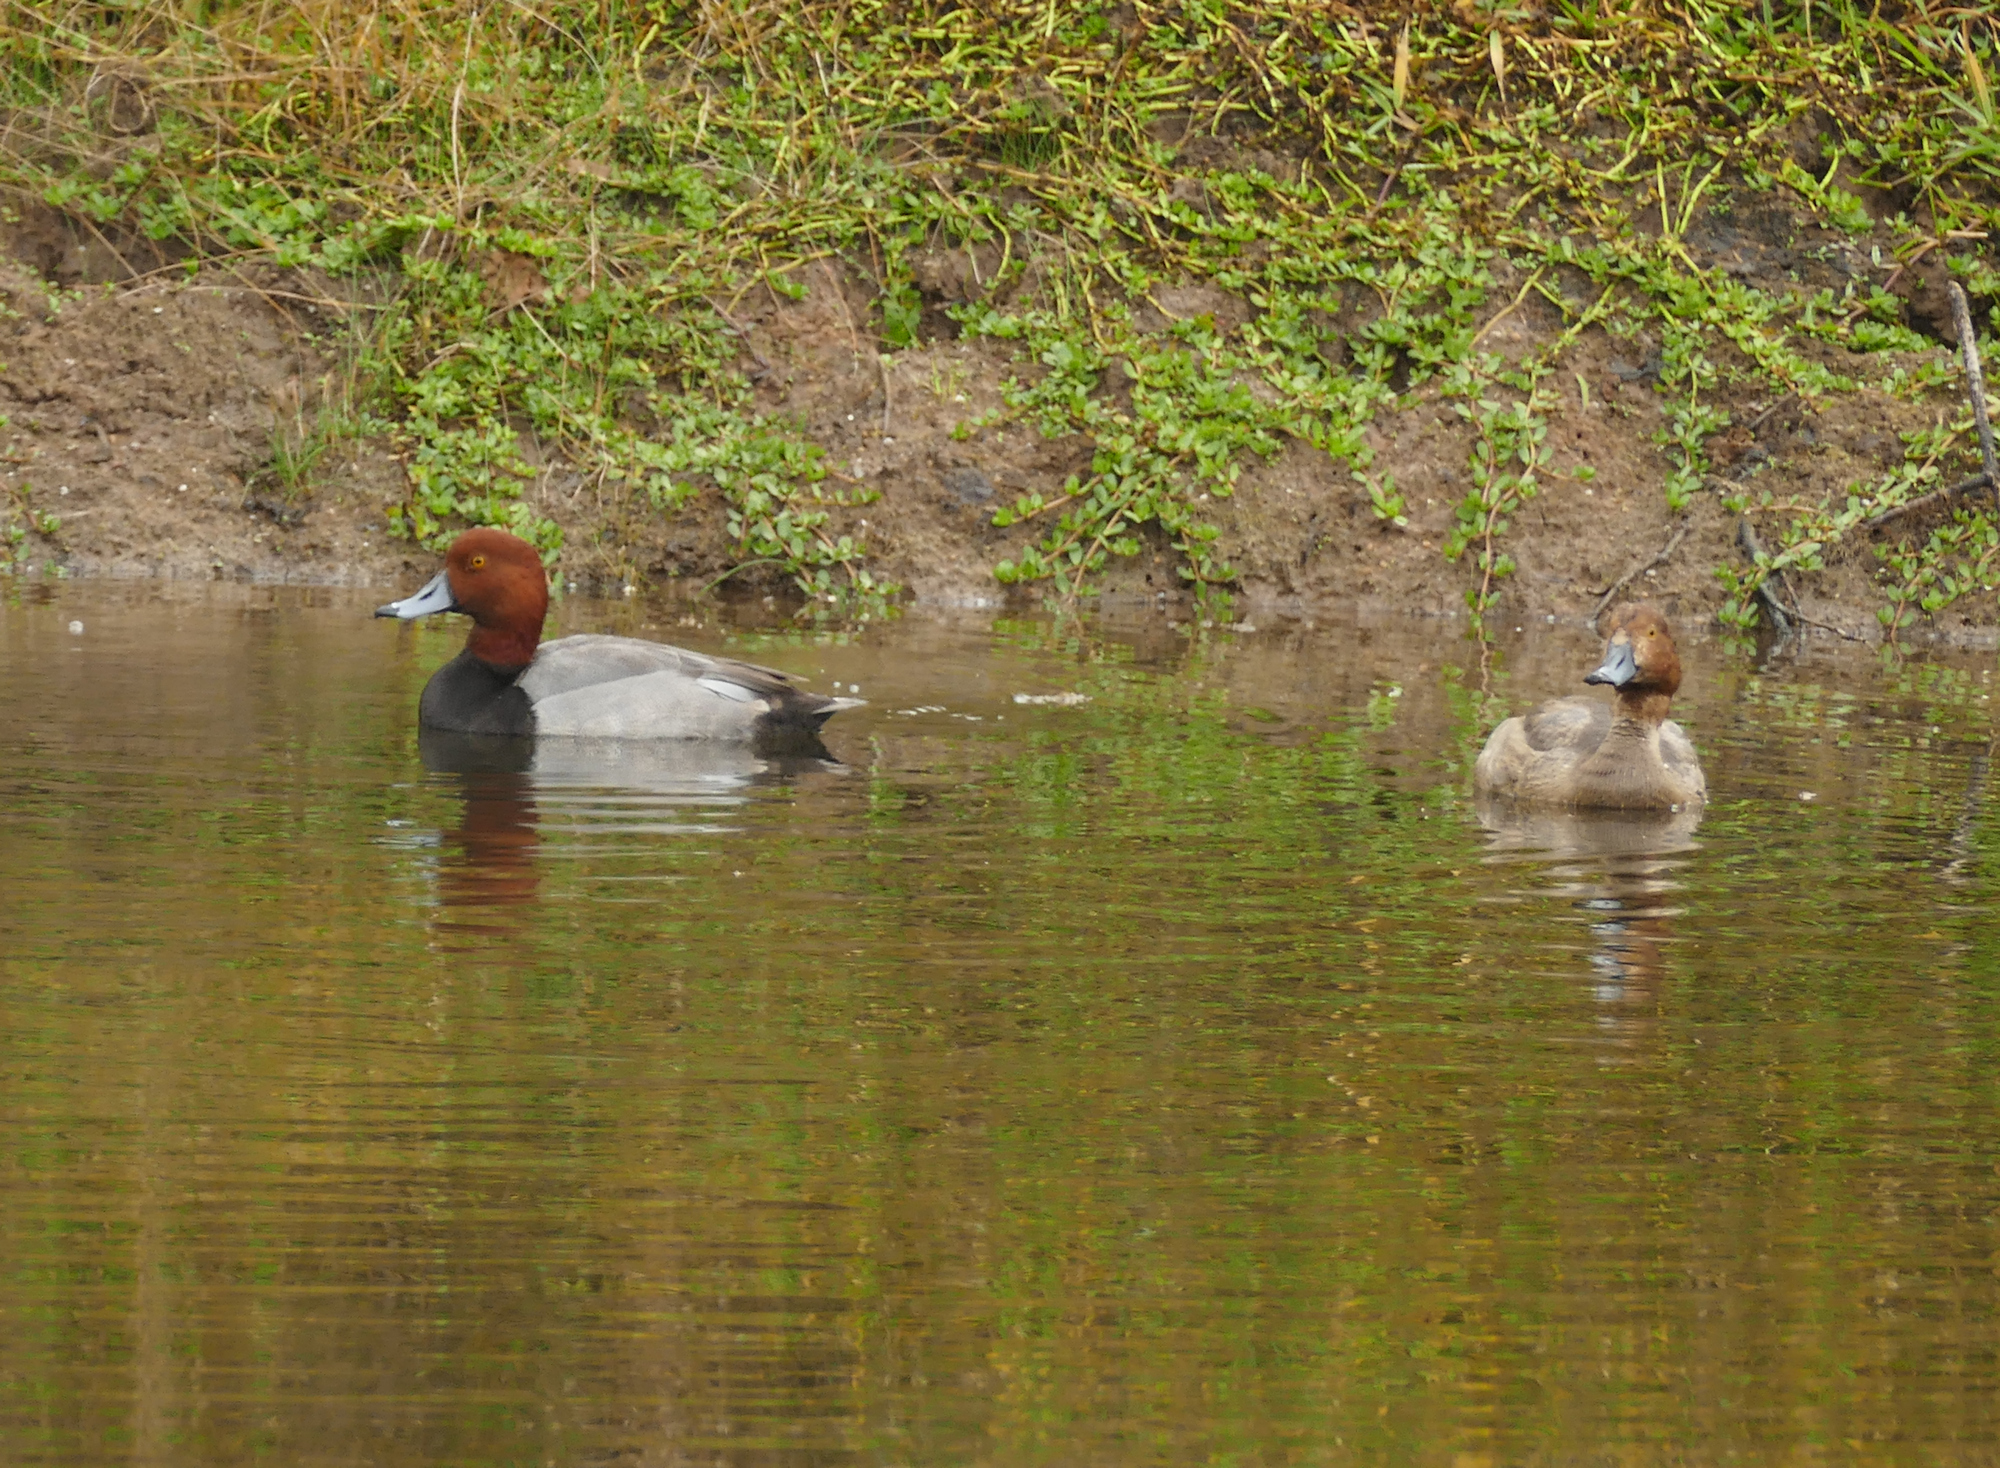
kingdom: Animalia
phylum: Chordata
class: Aves
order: Anseriformes
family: Anatidae
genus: Aythya
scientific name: Aythya americana
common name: Redhead
